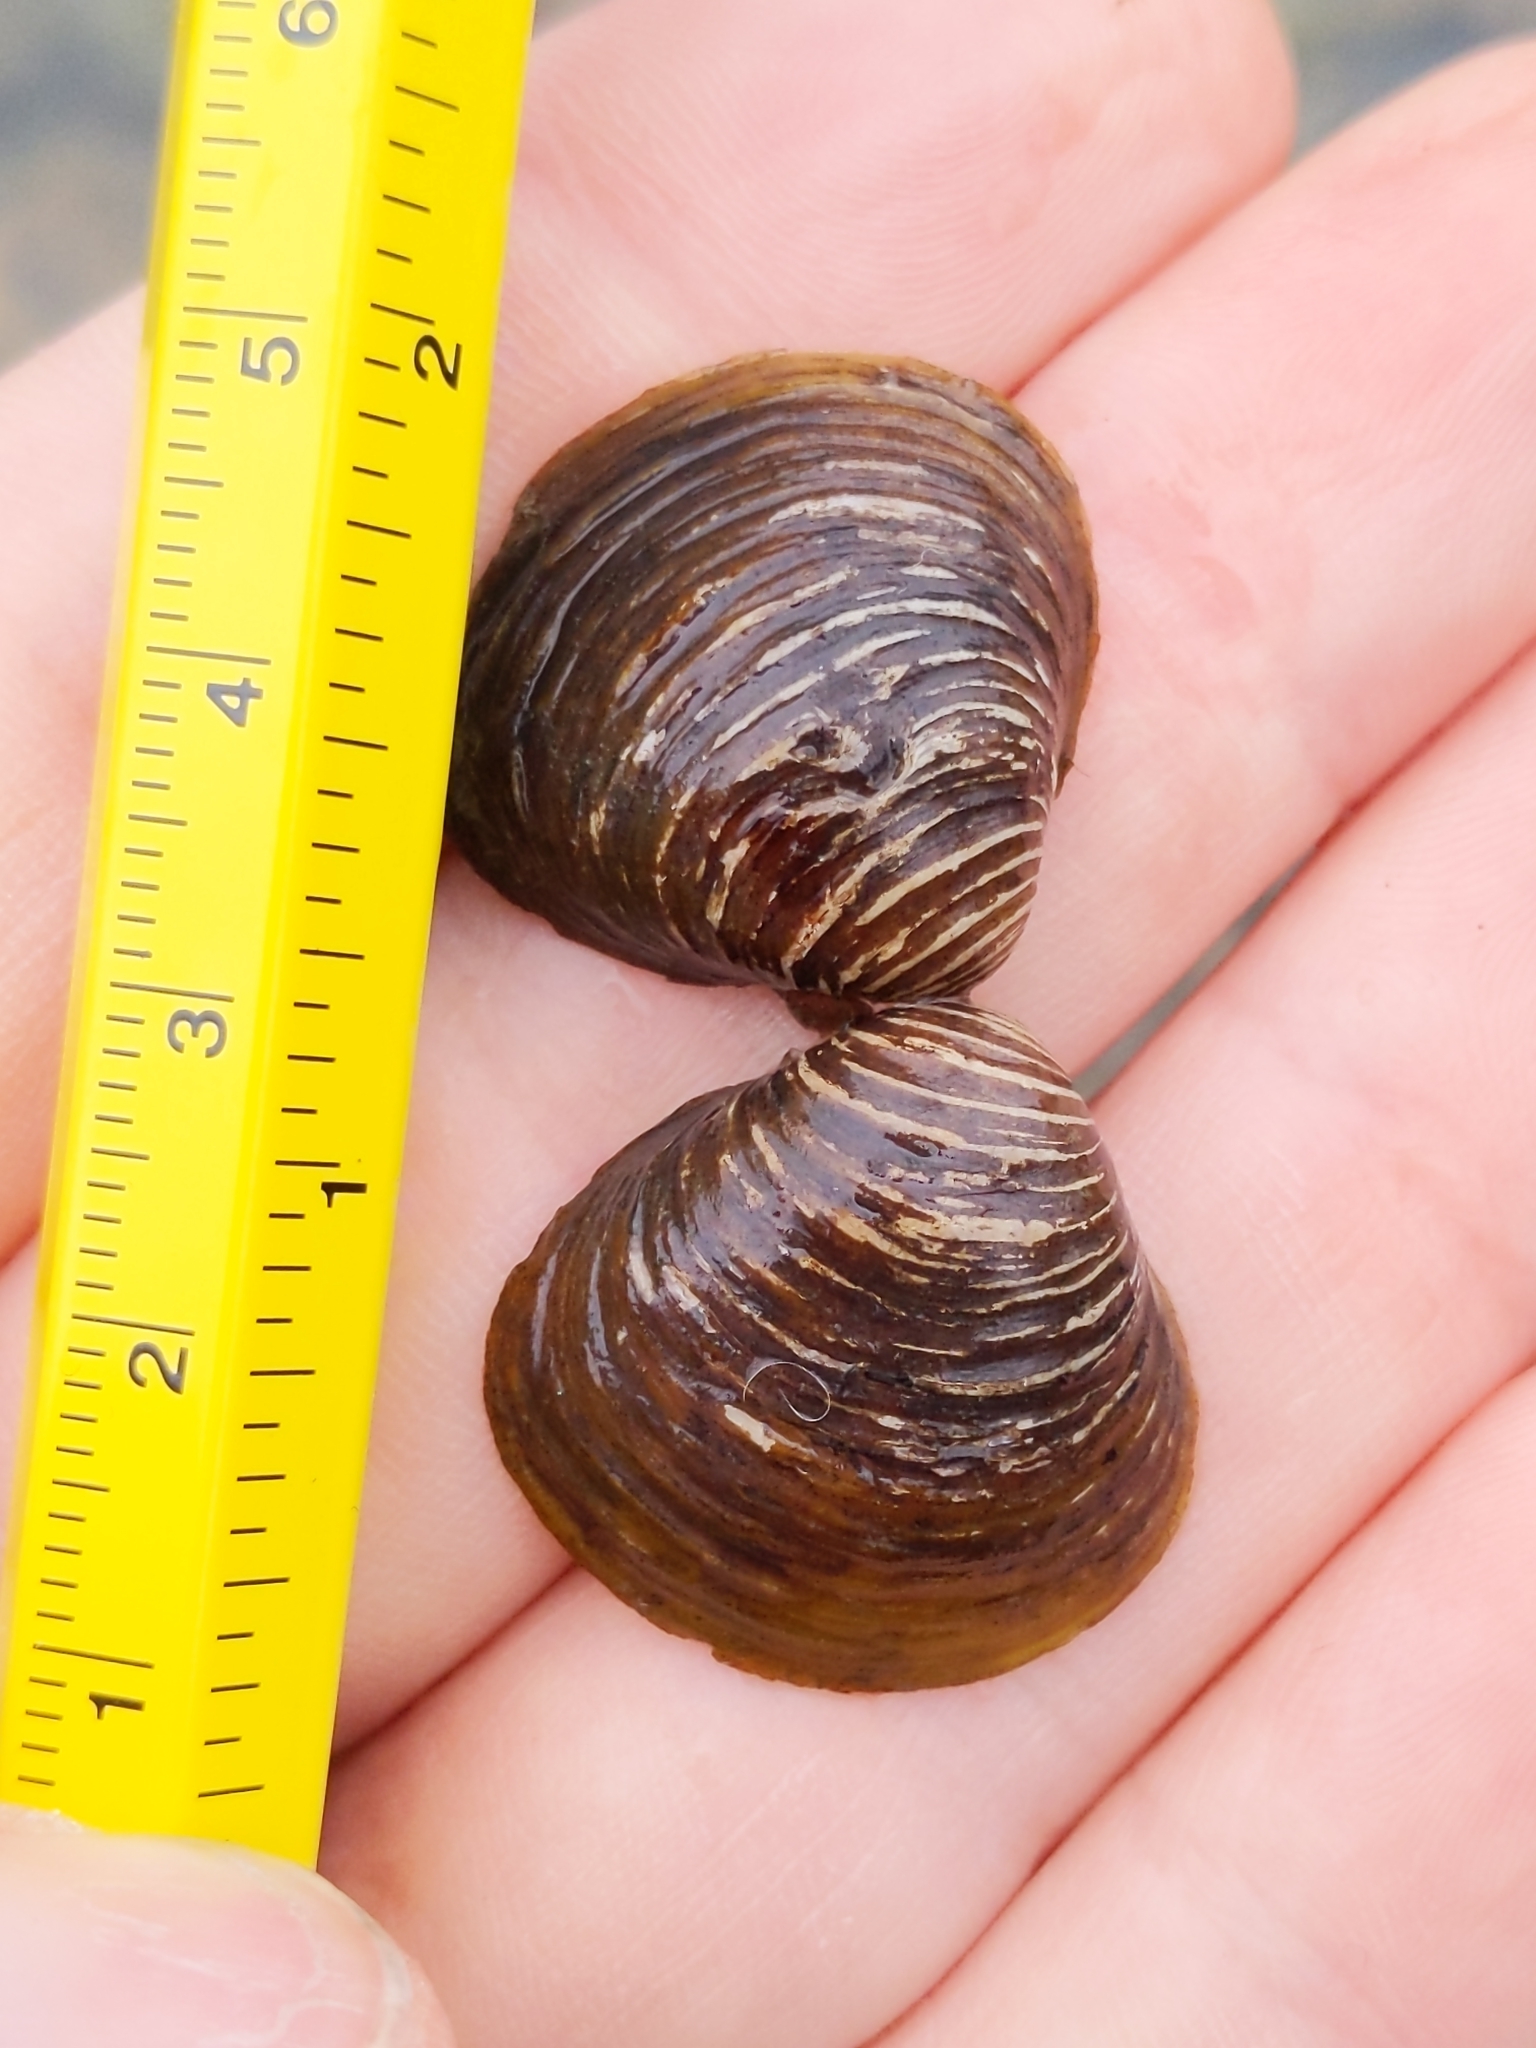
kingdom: Animalia
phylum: Mollusca
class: Bivalvia
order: Venerida
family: Cyrenidae
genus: Corbicula
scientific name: Corbicula fluminea
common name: Asian clam
